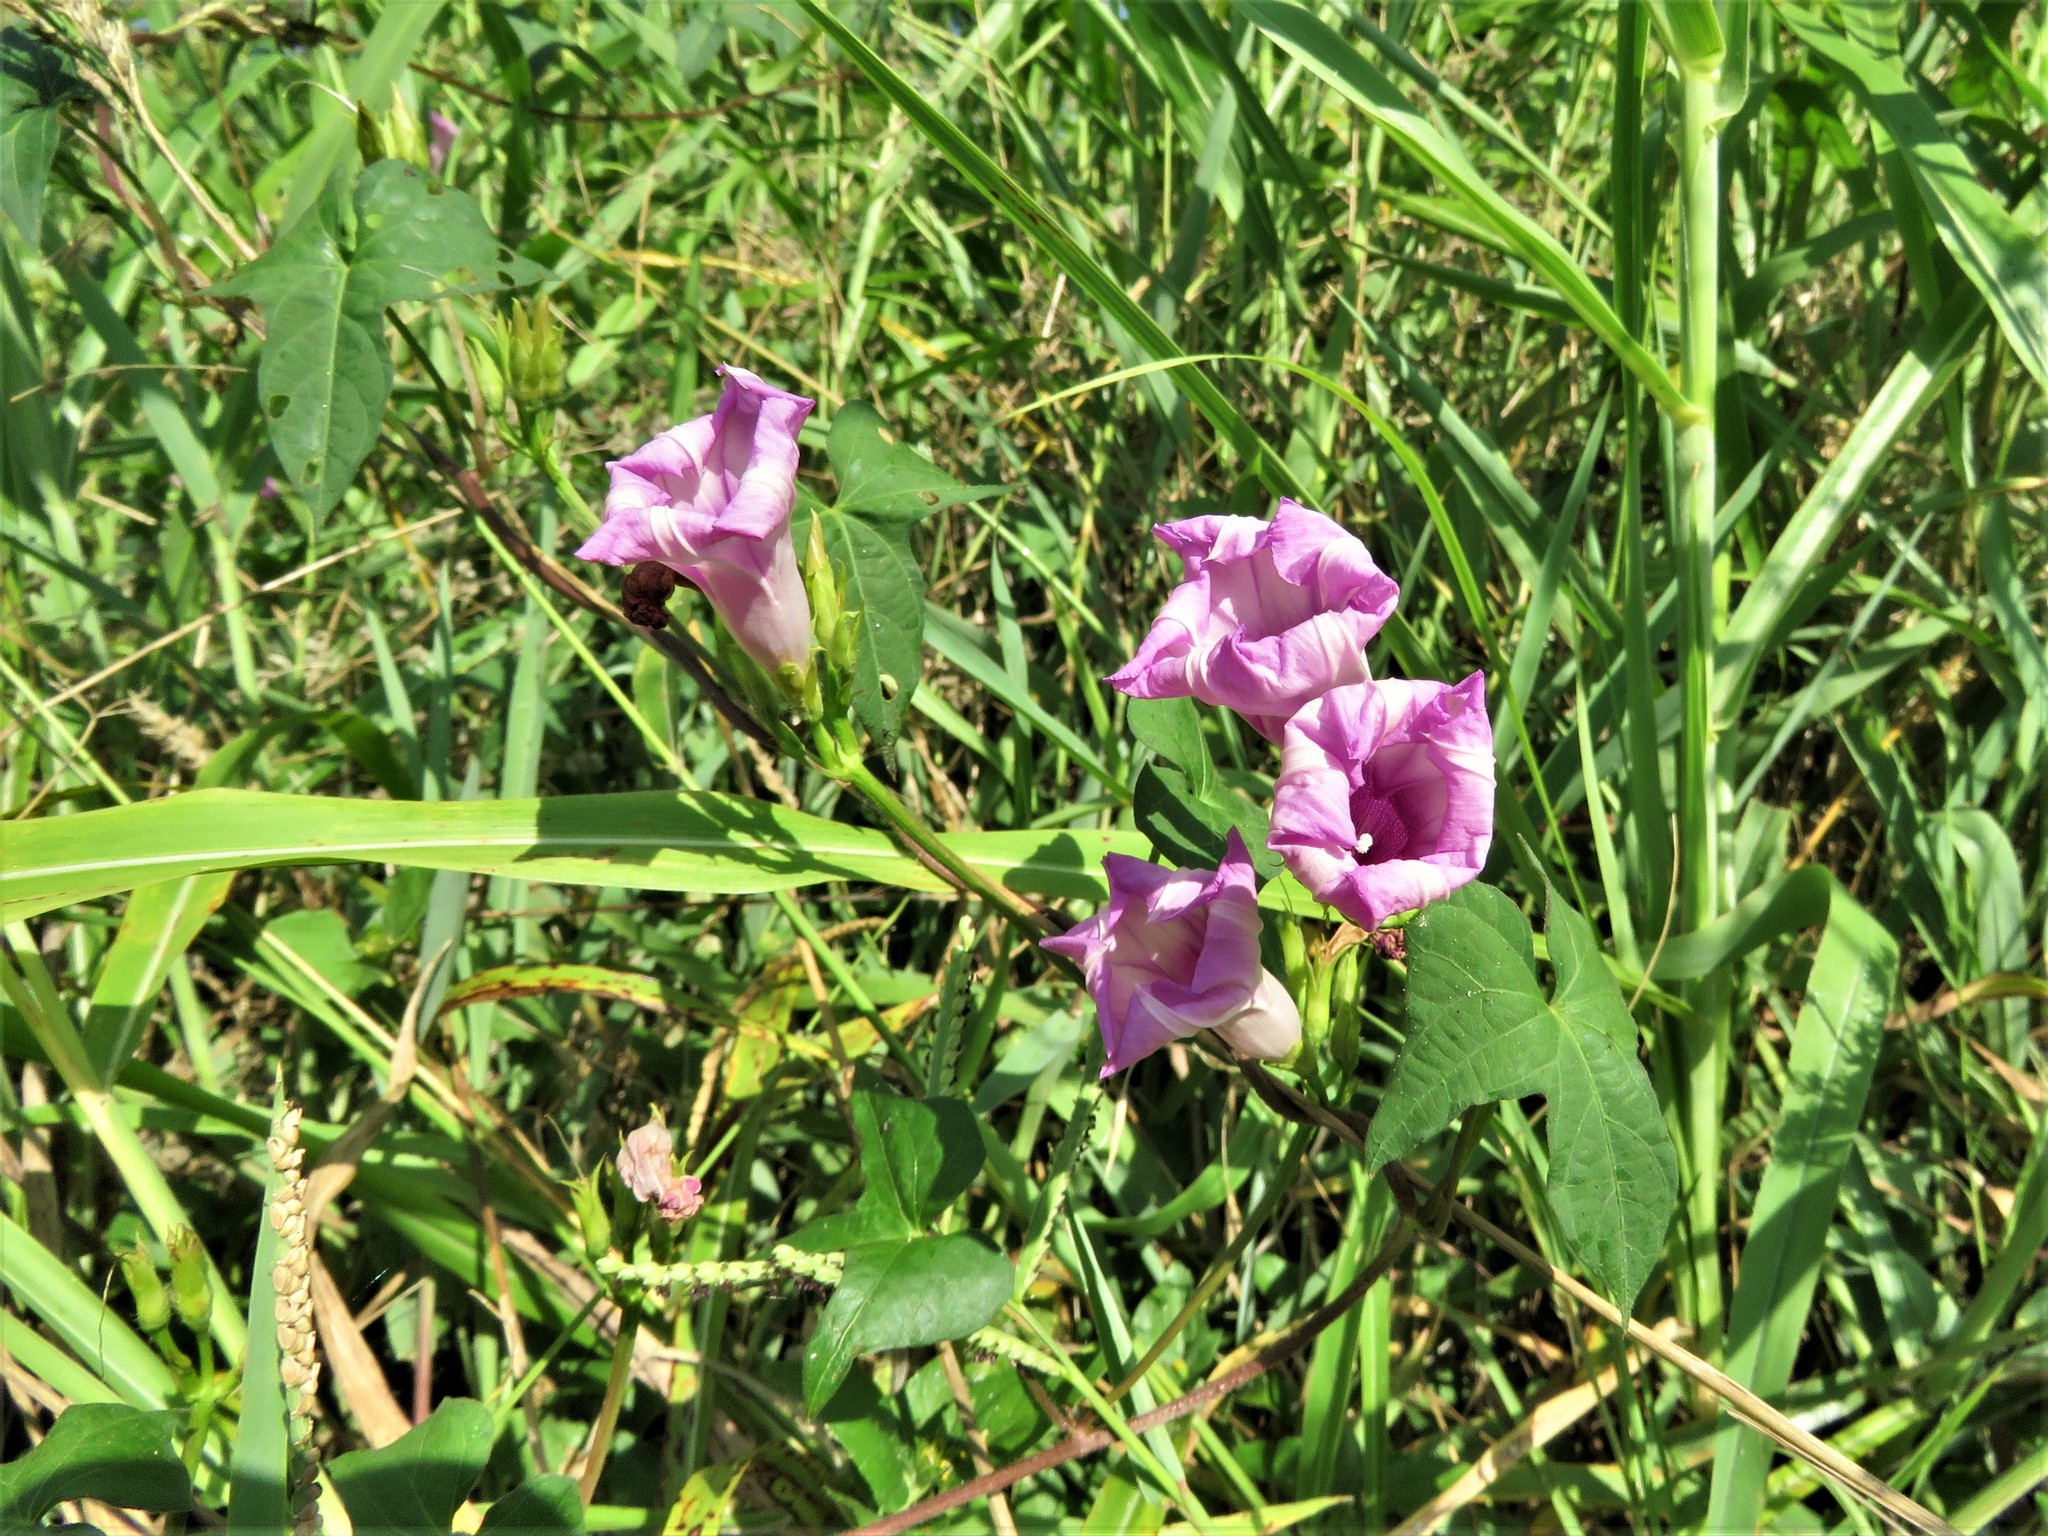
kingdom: Plantae
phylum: Tracheophyta
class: Magnoliopsida
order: Solanales
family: Convolvulaceae
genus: Ipomoea
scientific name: Ipomoea cordatotriloba
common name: Cotton morning glory
